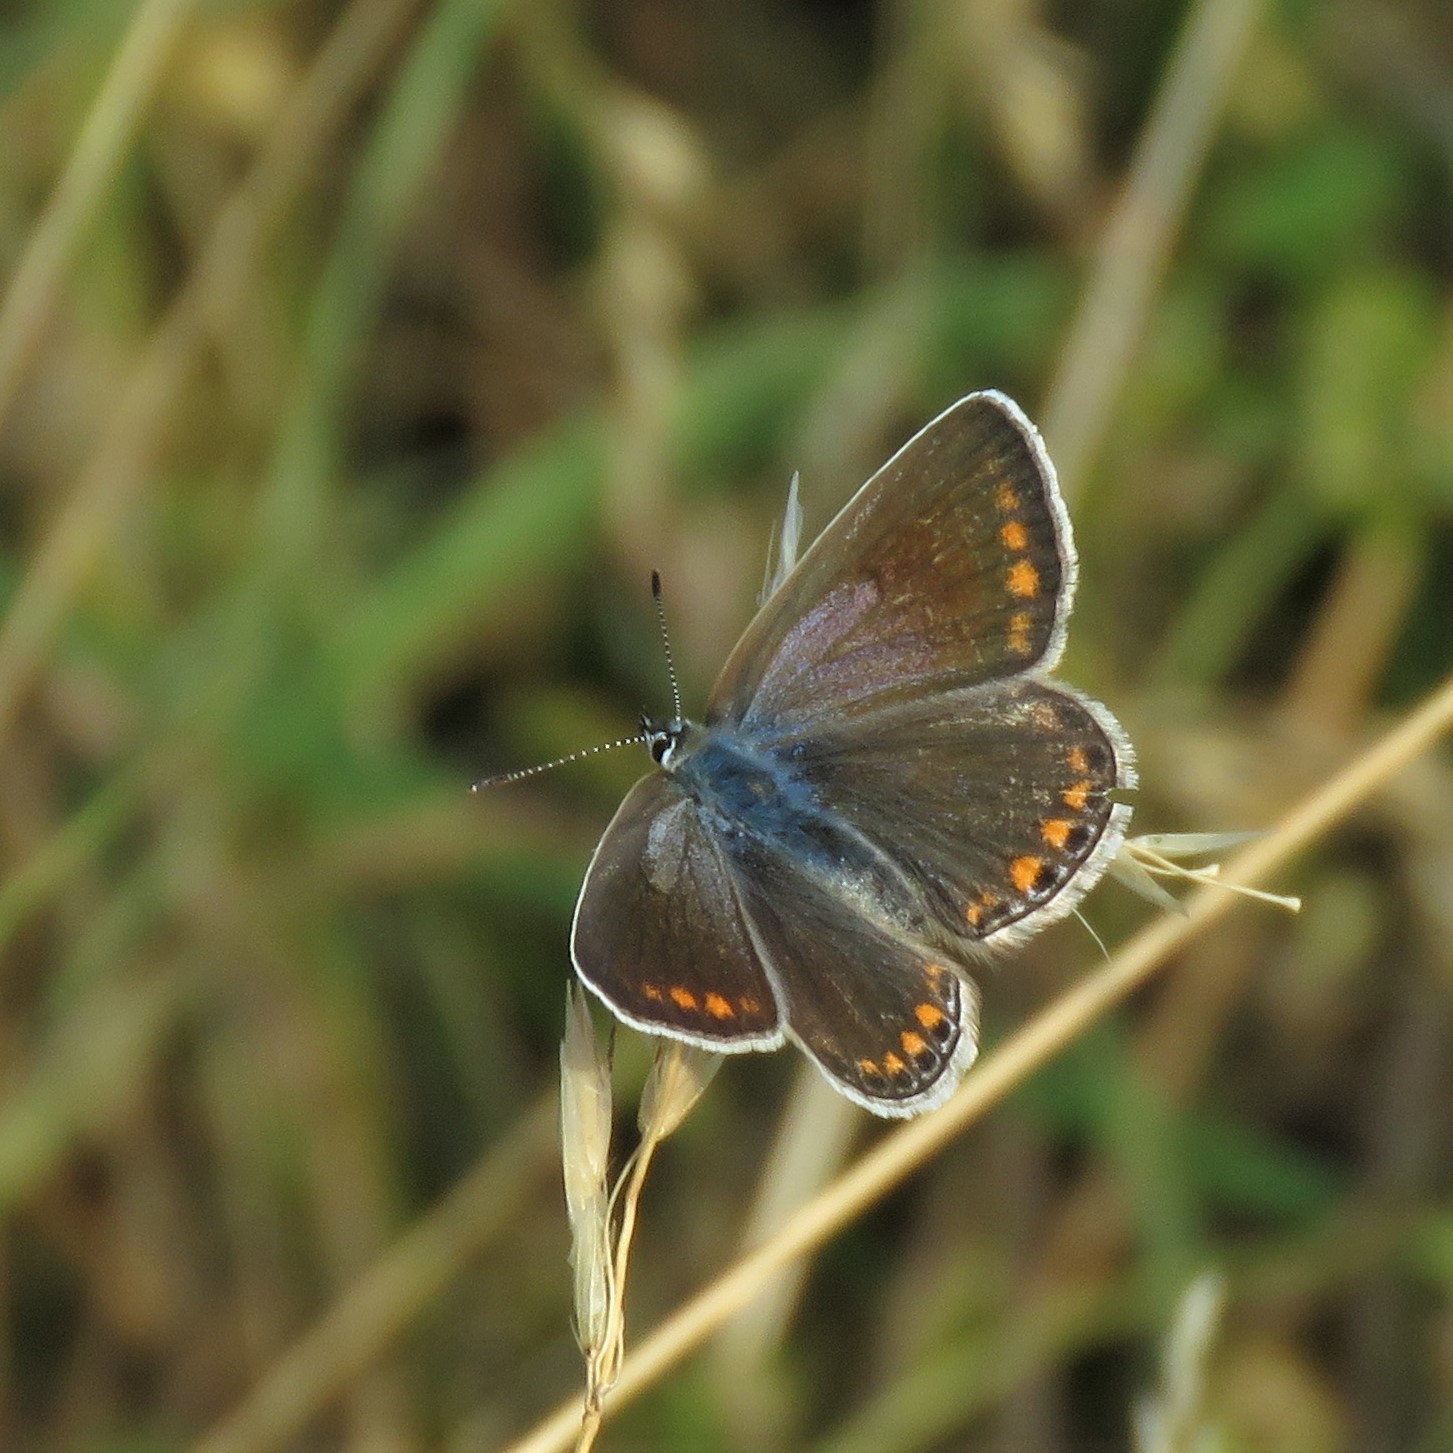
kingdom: Animalia
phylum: Arthropoda
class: Insecta
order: Lepidoptera
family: Lycaenidae
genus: Polyommatus
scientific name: Polyommatus icarus
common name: Common blue
